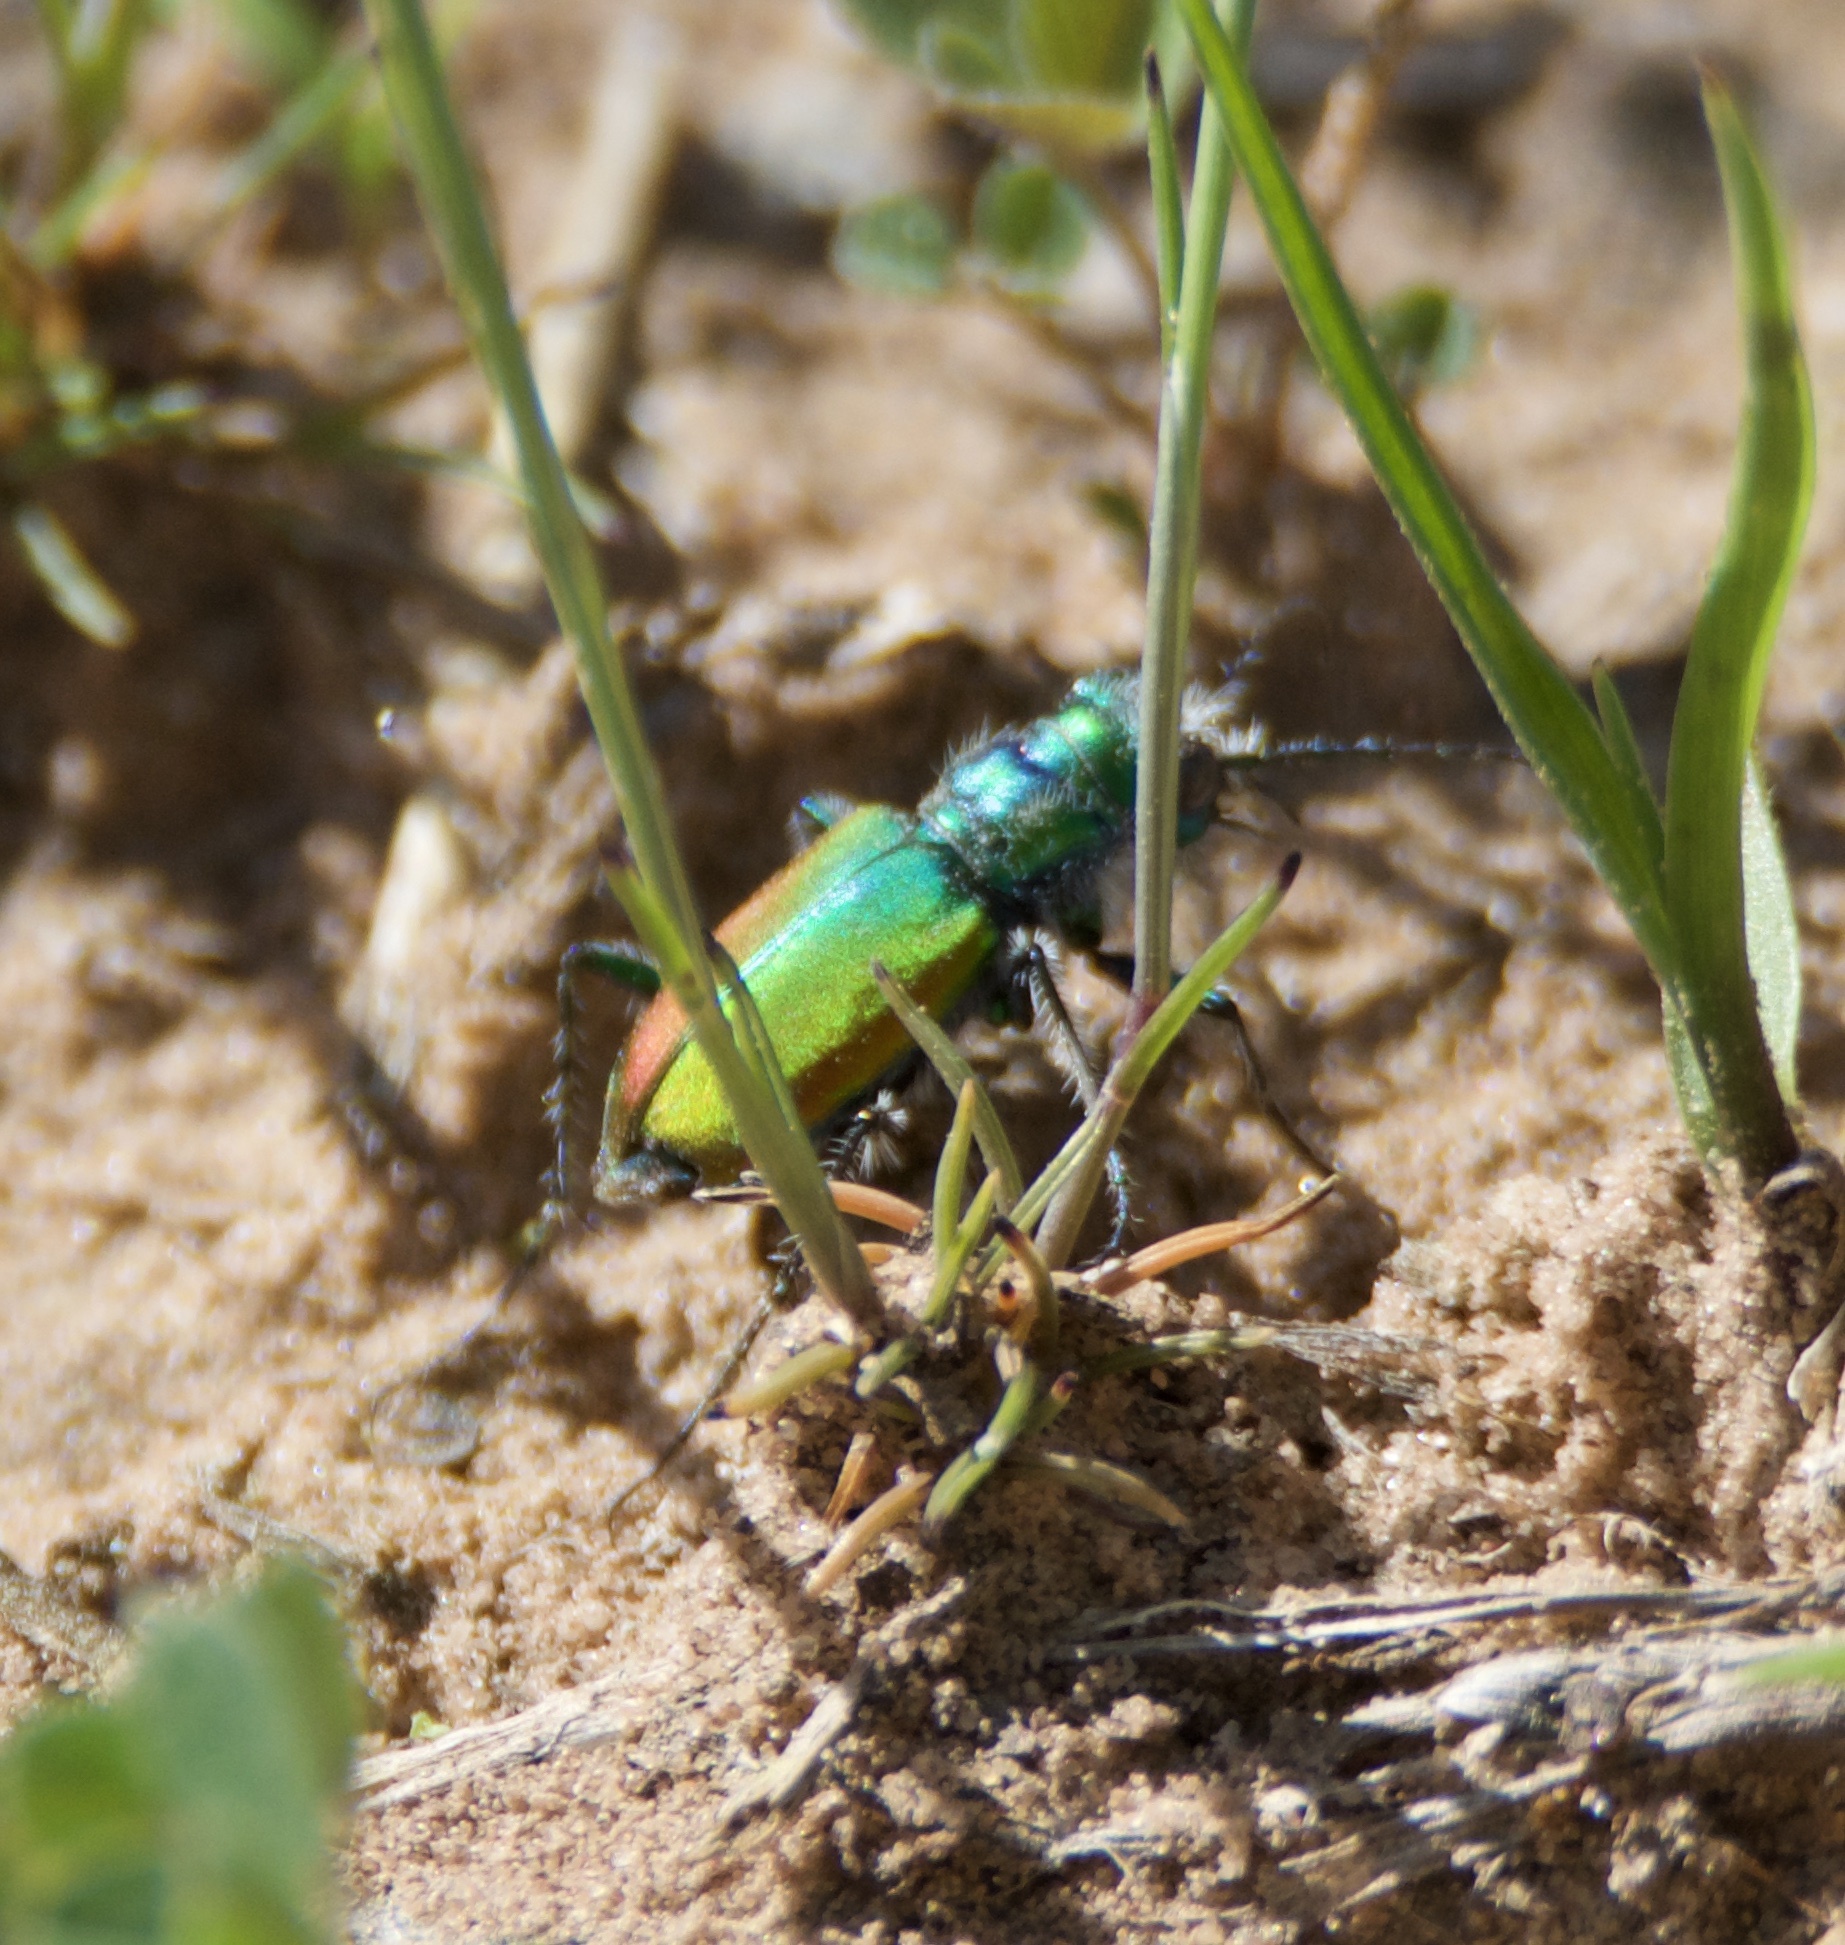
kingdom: Animalia
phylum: Arthropoda
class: Insecta
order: Coleoptera
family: Carabidae
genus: Cicindela
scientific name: Cicindela scutellaris
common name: Festive tiger beetle
